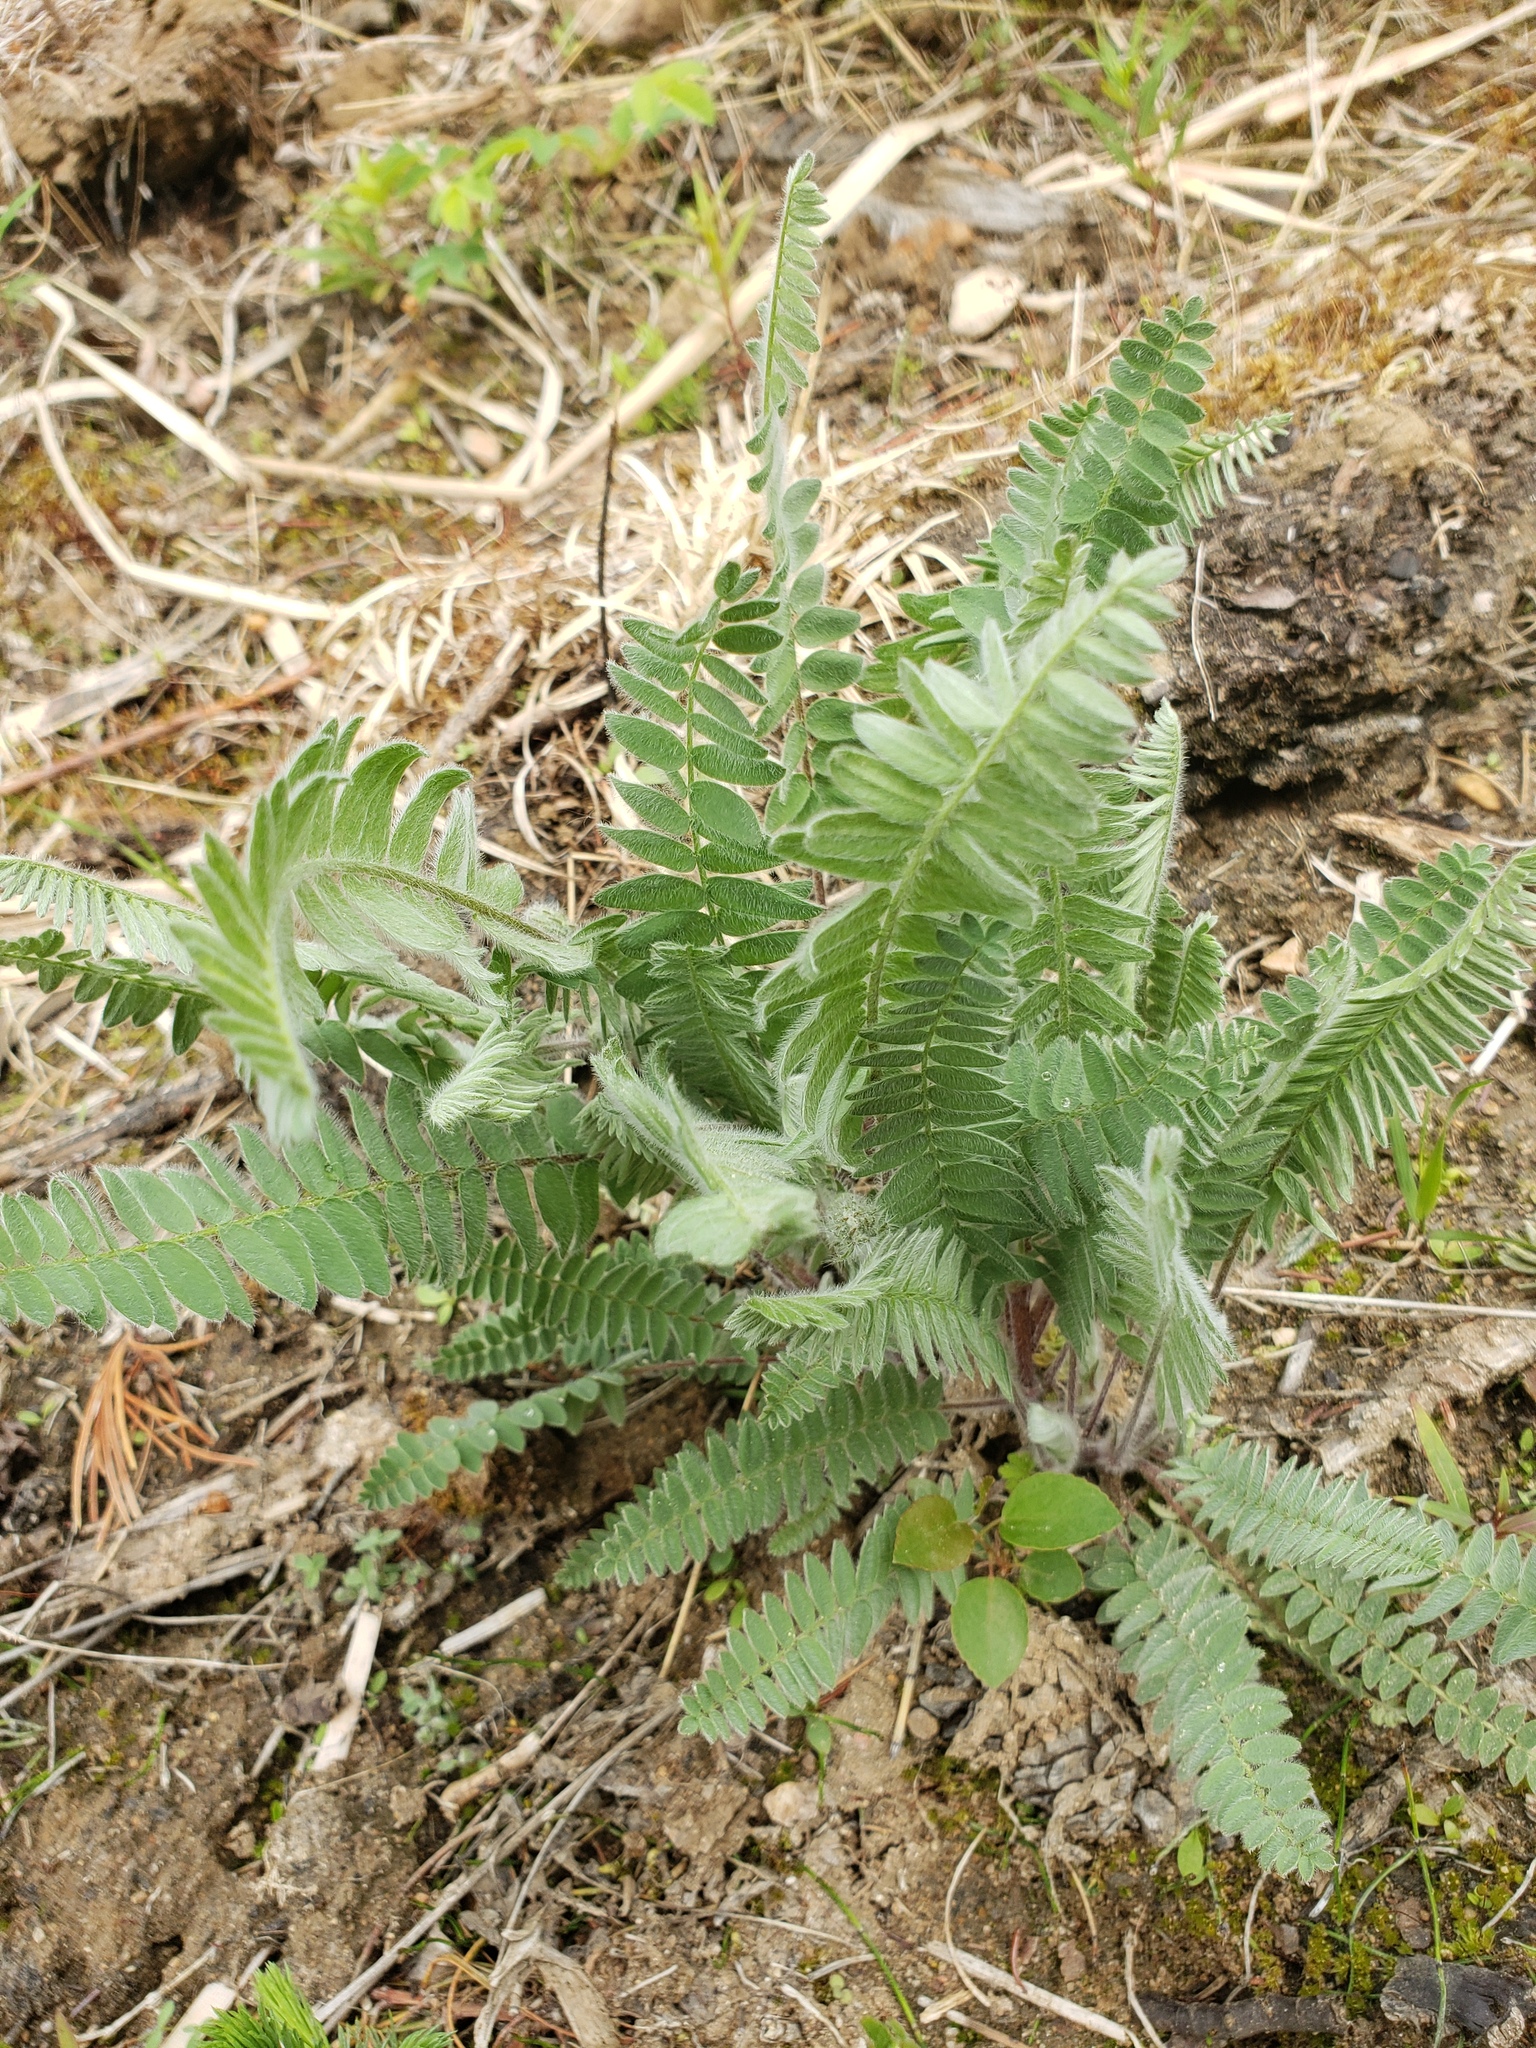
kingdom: Plantae
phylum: Tracheophyta
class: Magnoliopsida
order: Fabales
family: Fabaceae
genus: Oxytropis
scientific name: Oxytropis deflexa
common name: Stemmed oxytrope
